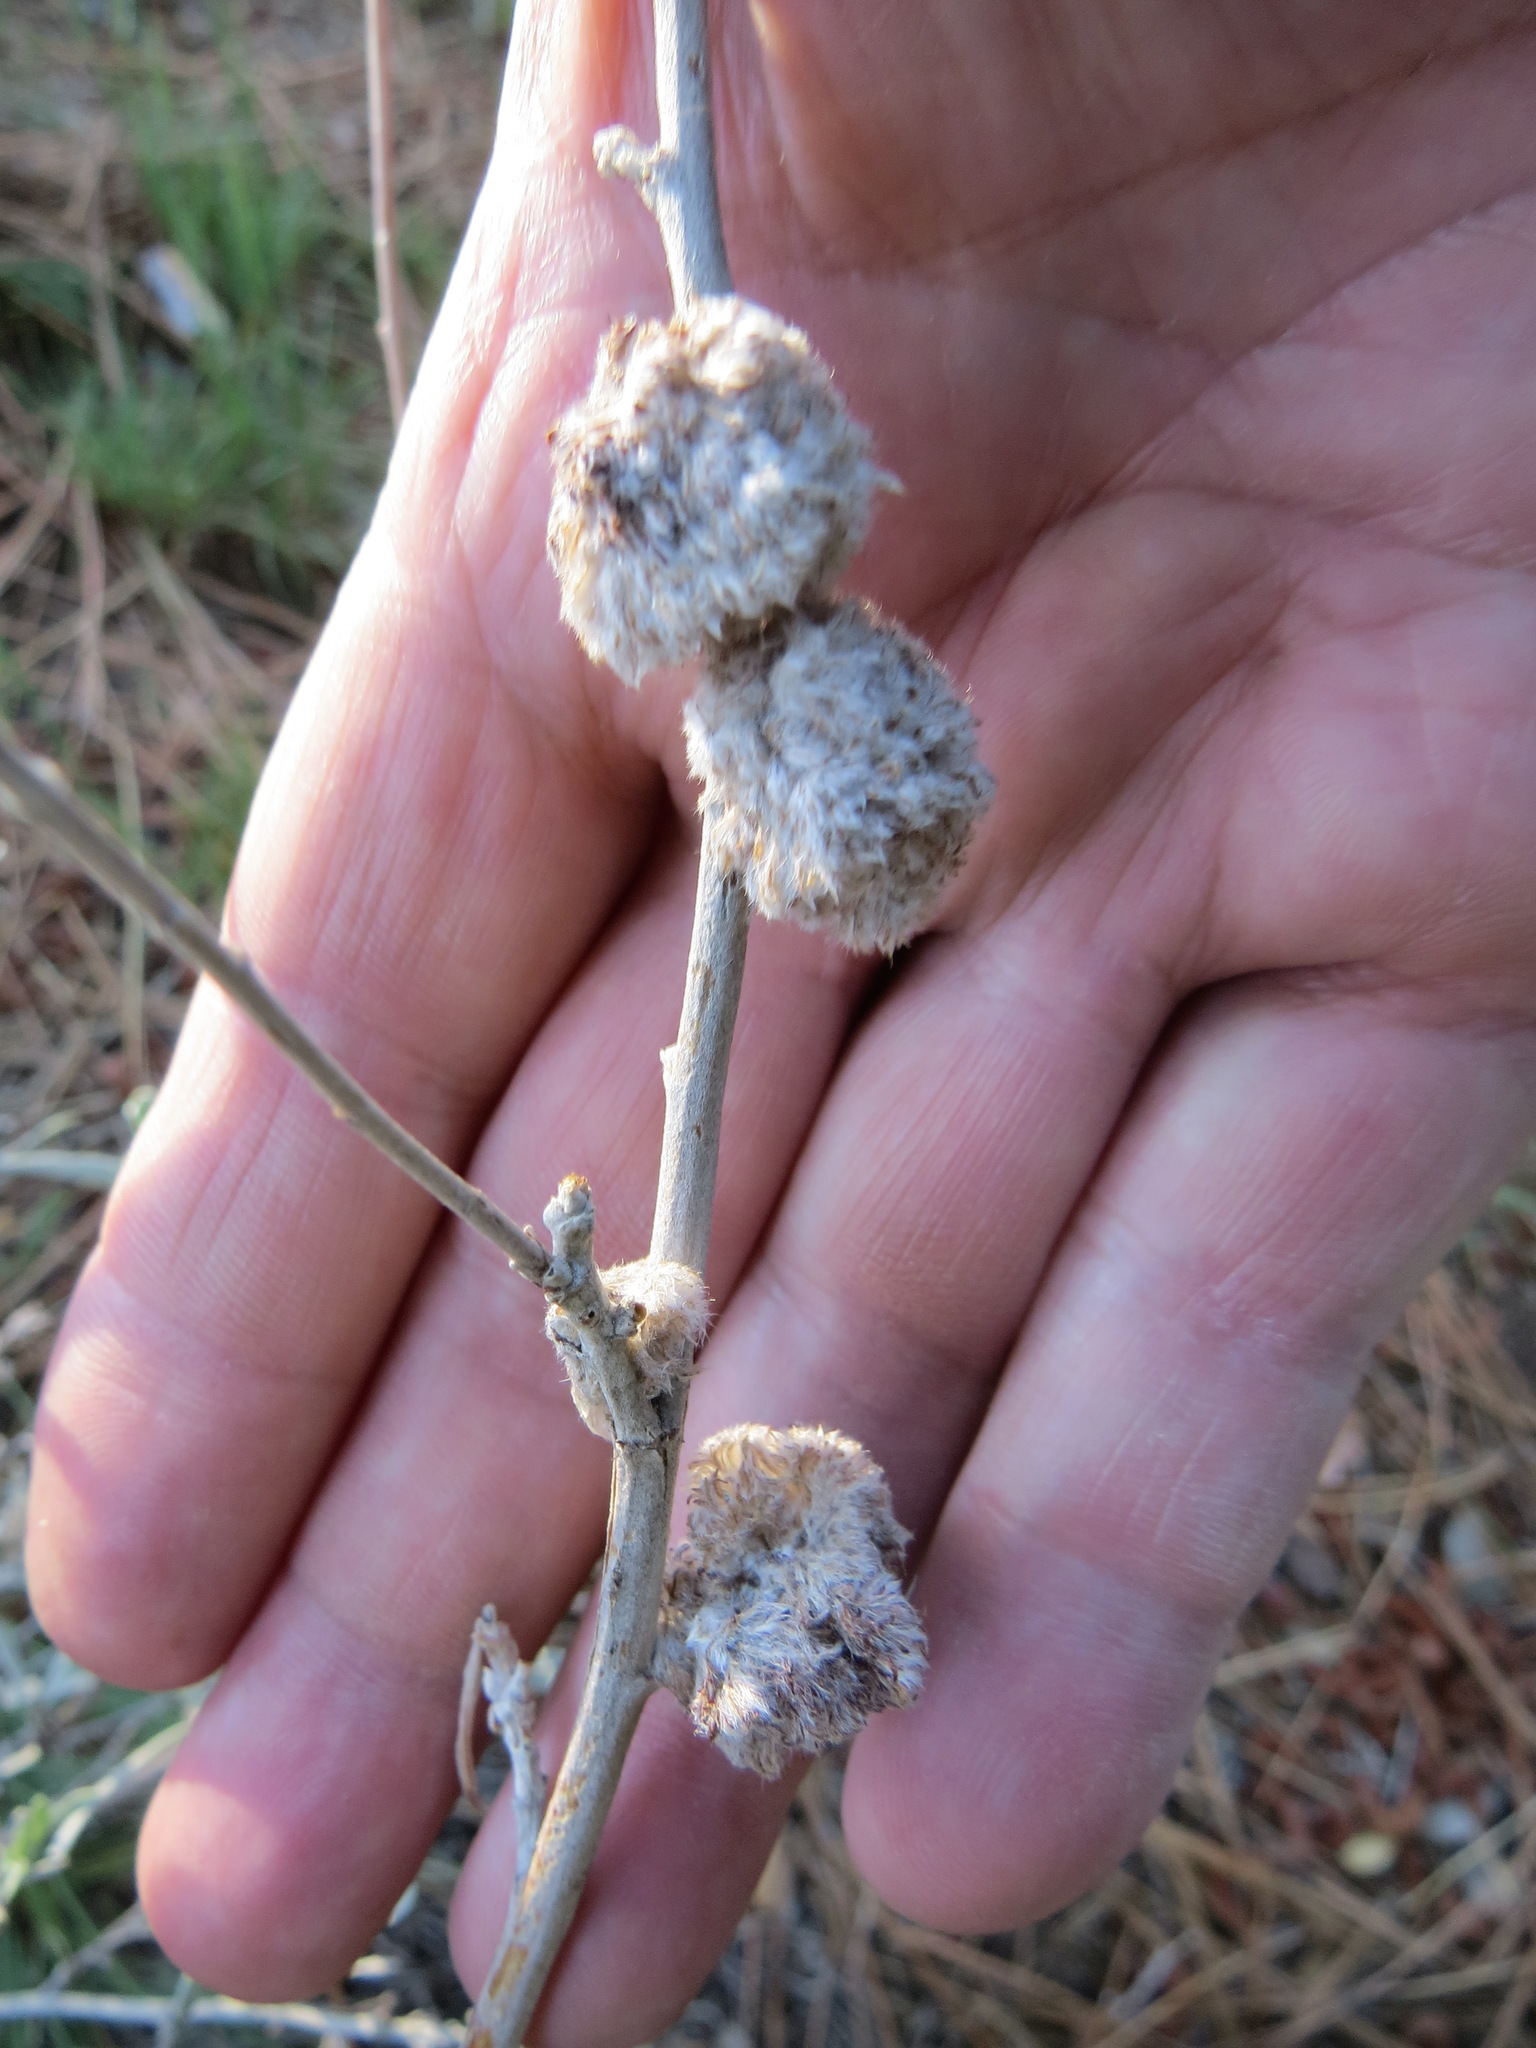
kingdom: Animalia
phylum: Arthropoda
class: Insecta
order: Diptera
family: Cecidomyiidae
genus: Rhopalomyia
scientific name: Rhopalomyia medusirrasa
